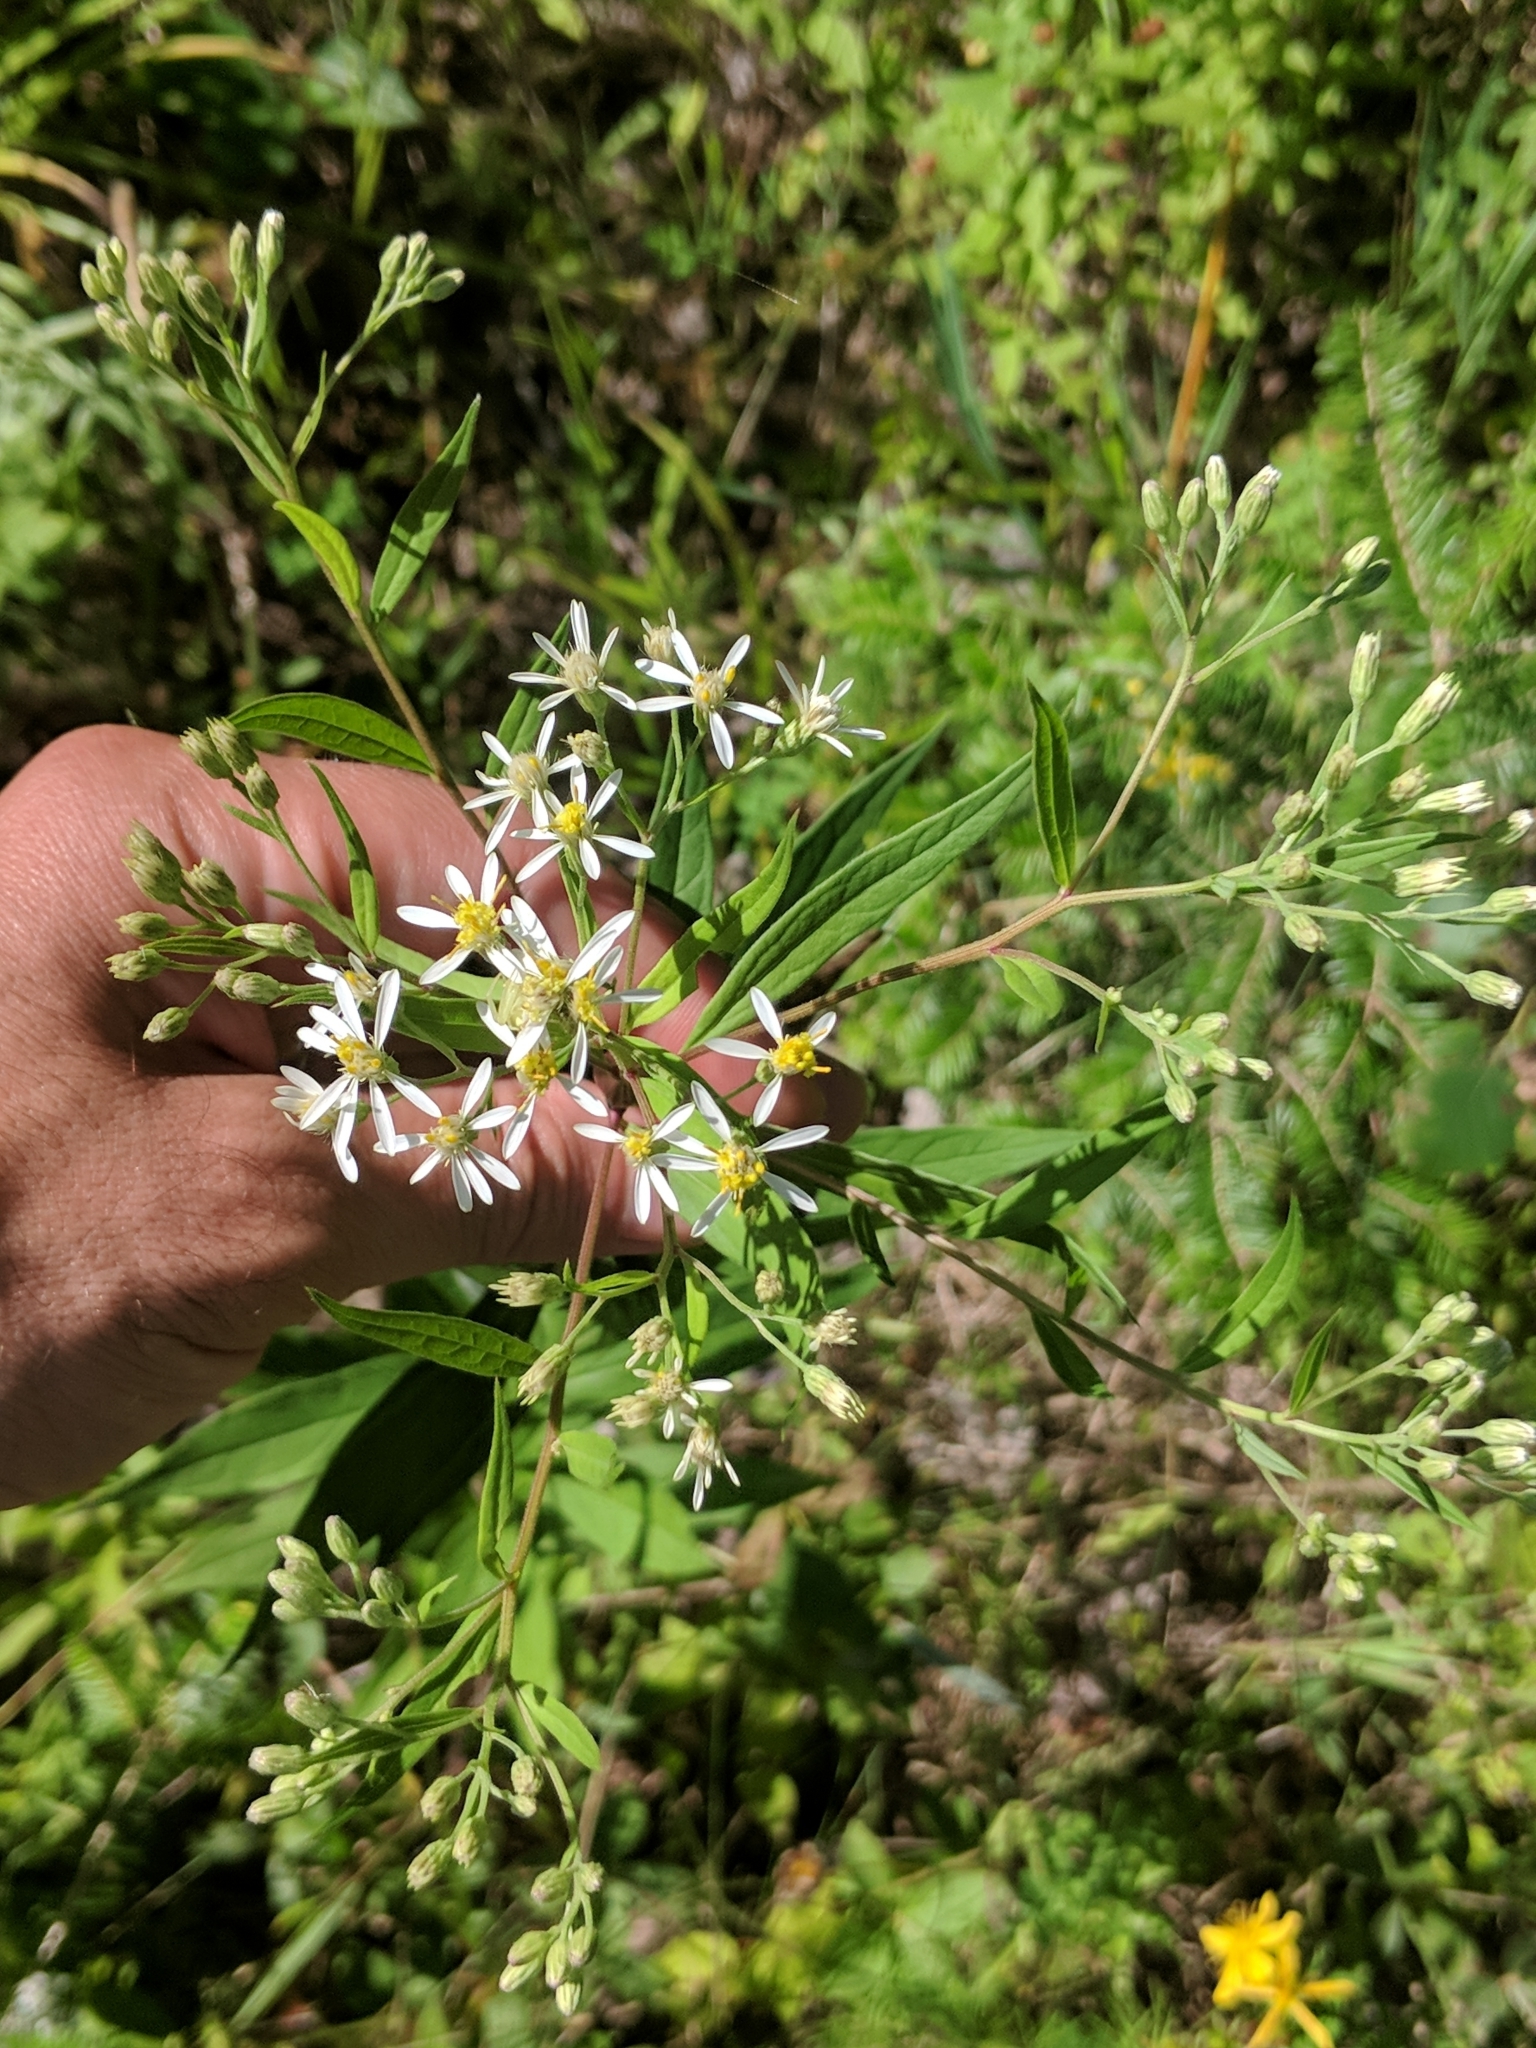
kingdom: Plantae
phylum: Tracheophyta
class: Magnoliopsida
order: Asterales
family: Asteraceae
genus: Doellingeria
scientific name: Doellingeria umbellata
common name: Flat-top white aster
